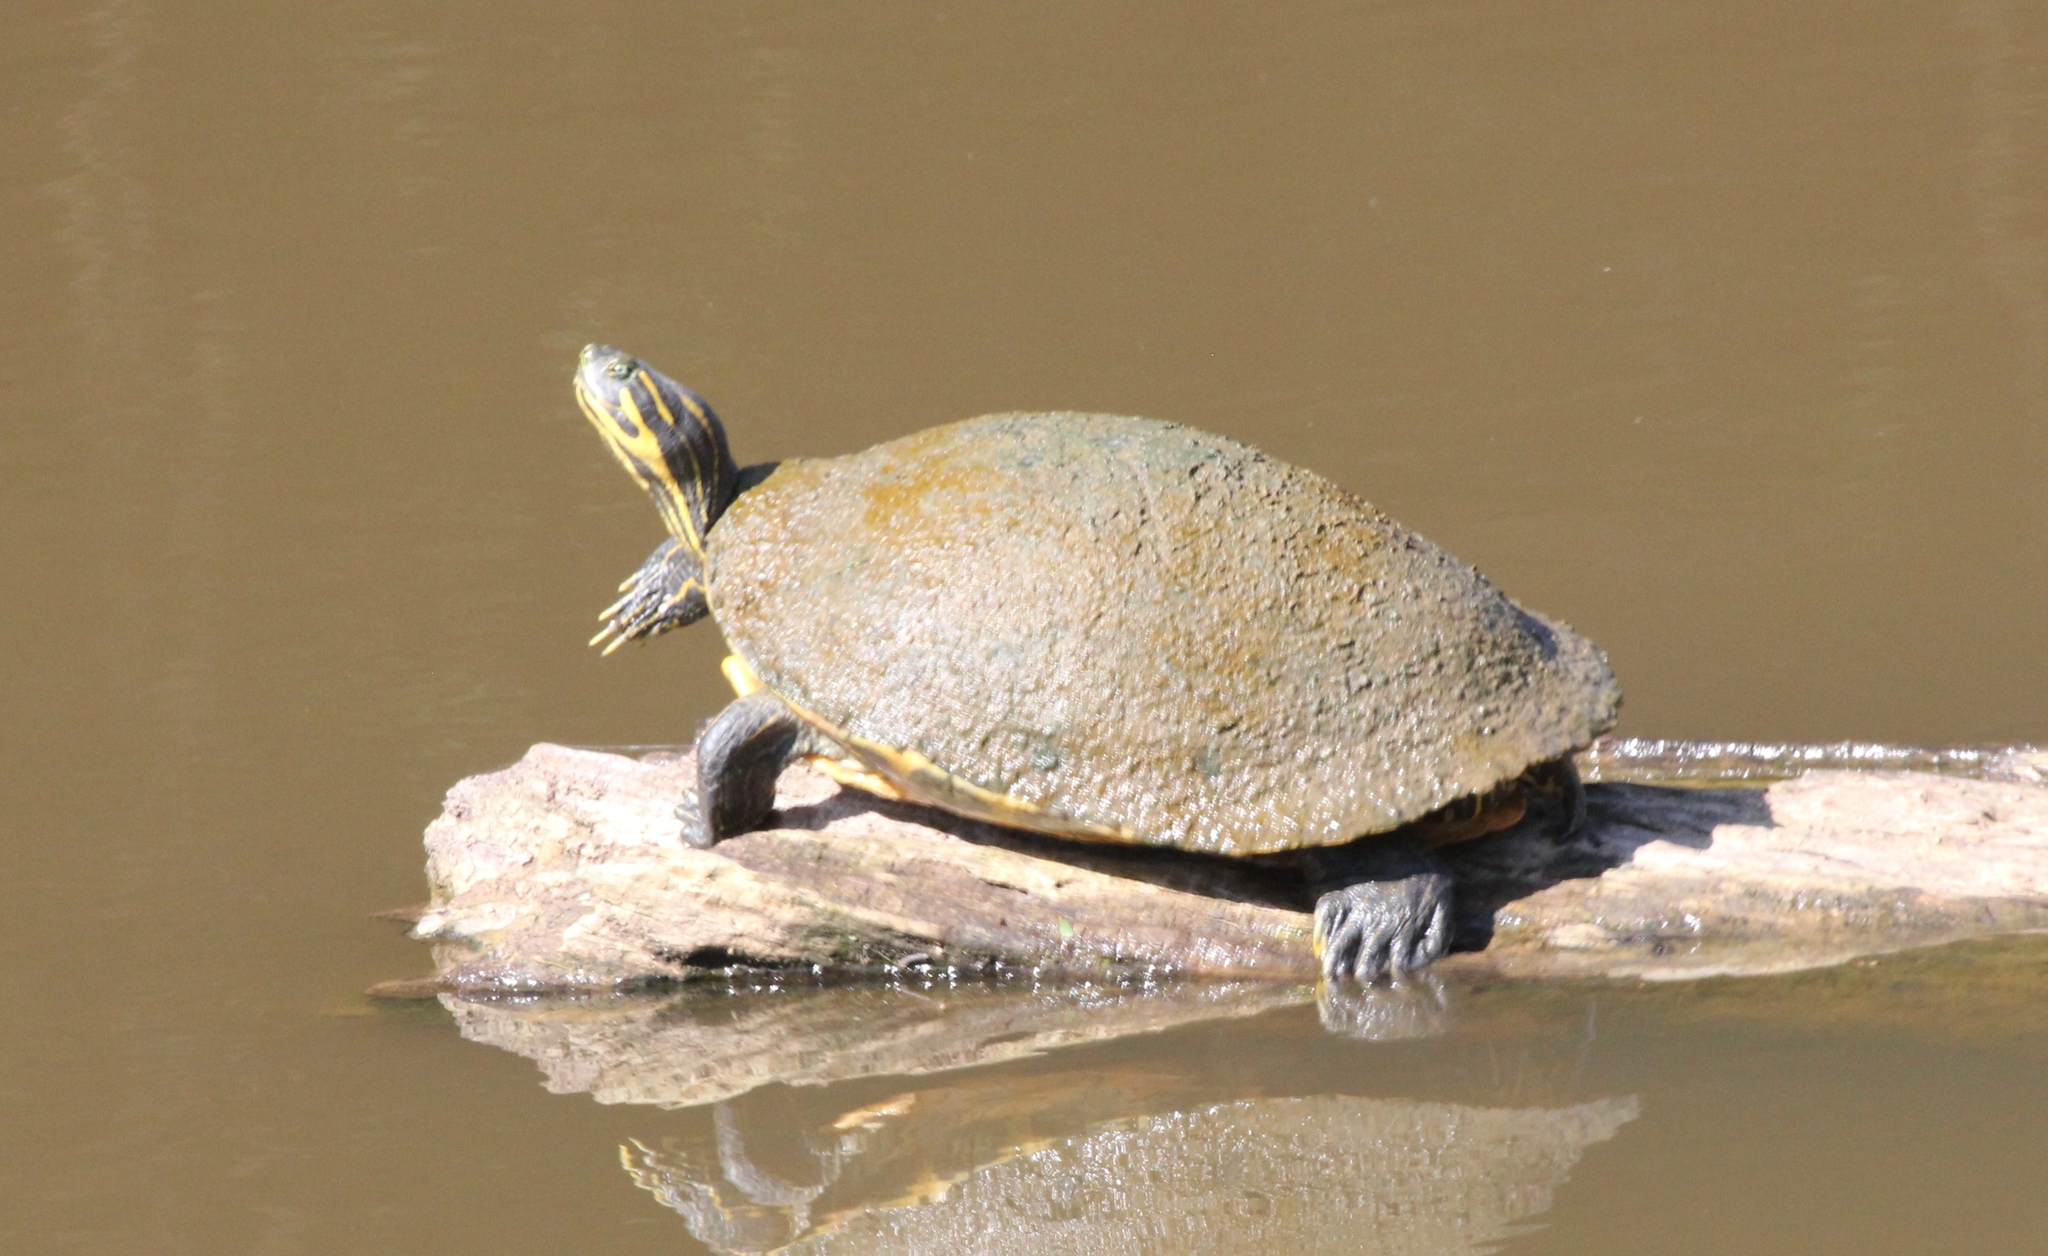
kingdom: Animalia
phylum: Chordata
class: Testudines
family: Emydidae
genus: Pseudemys
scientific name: Pseudemys concinna
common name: Eastern river cooter
